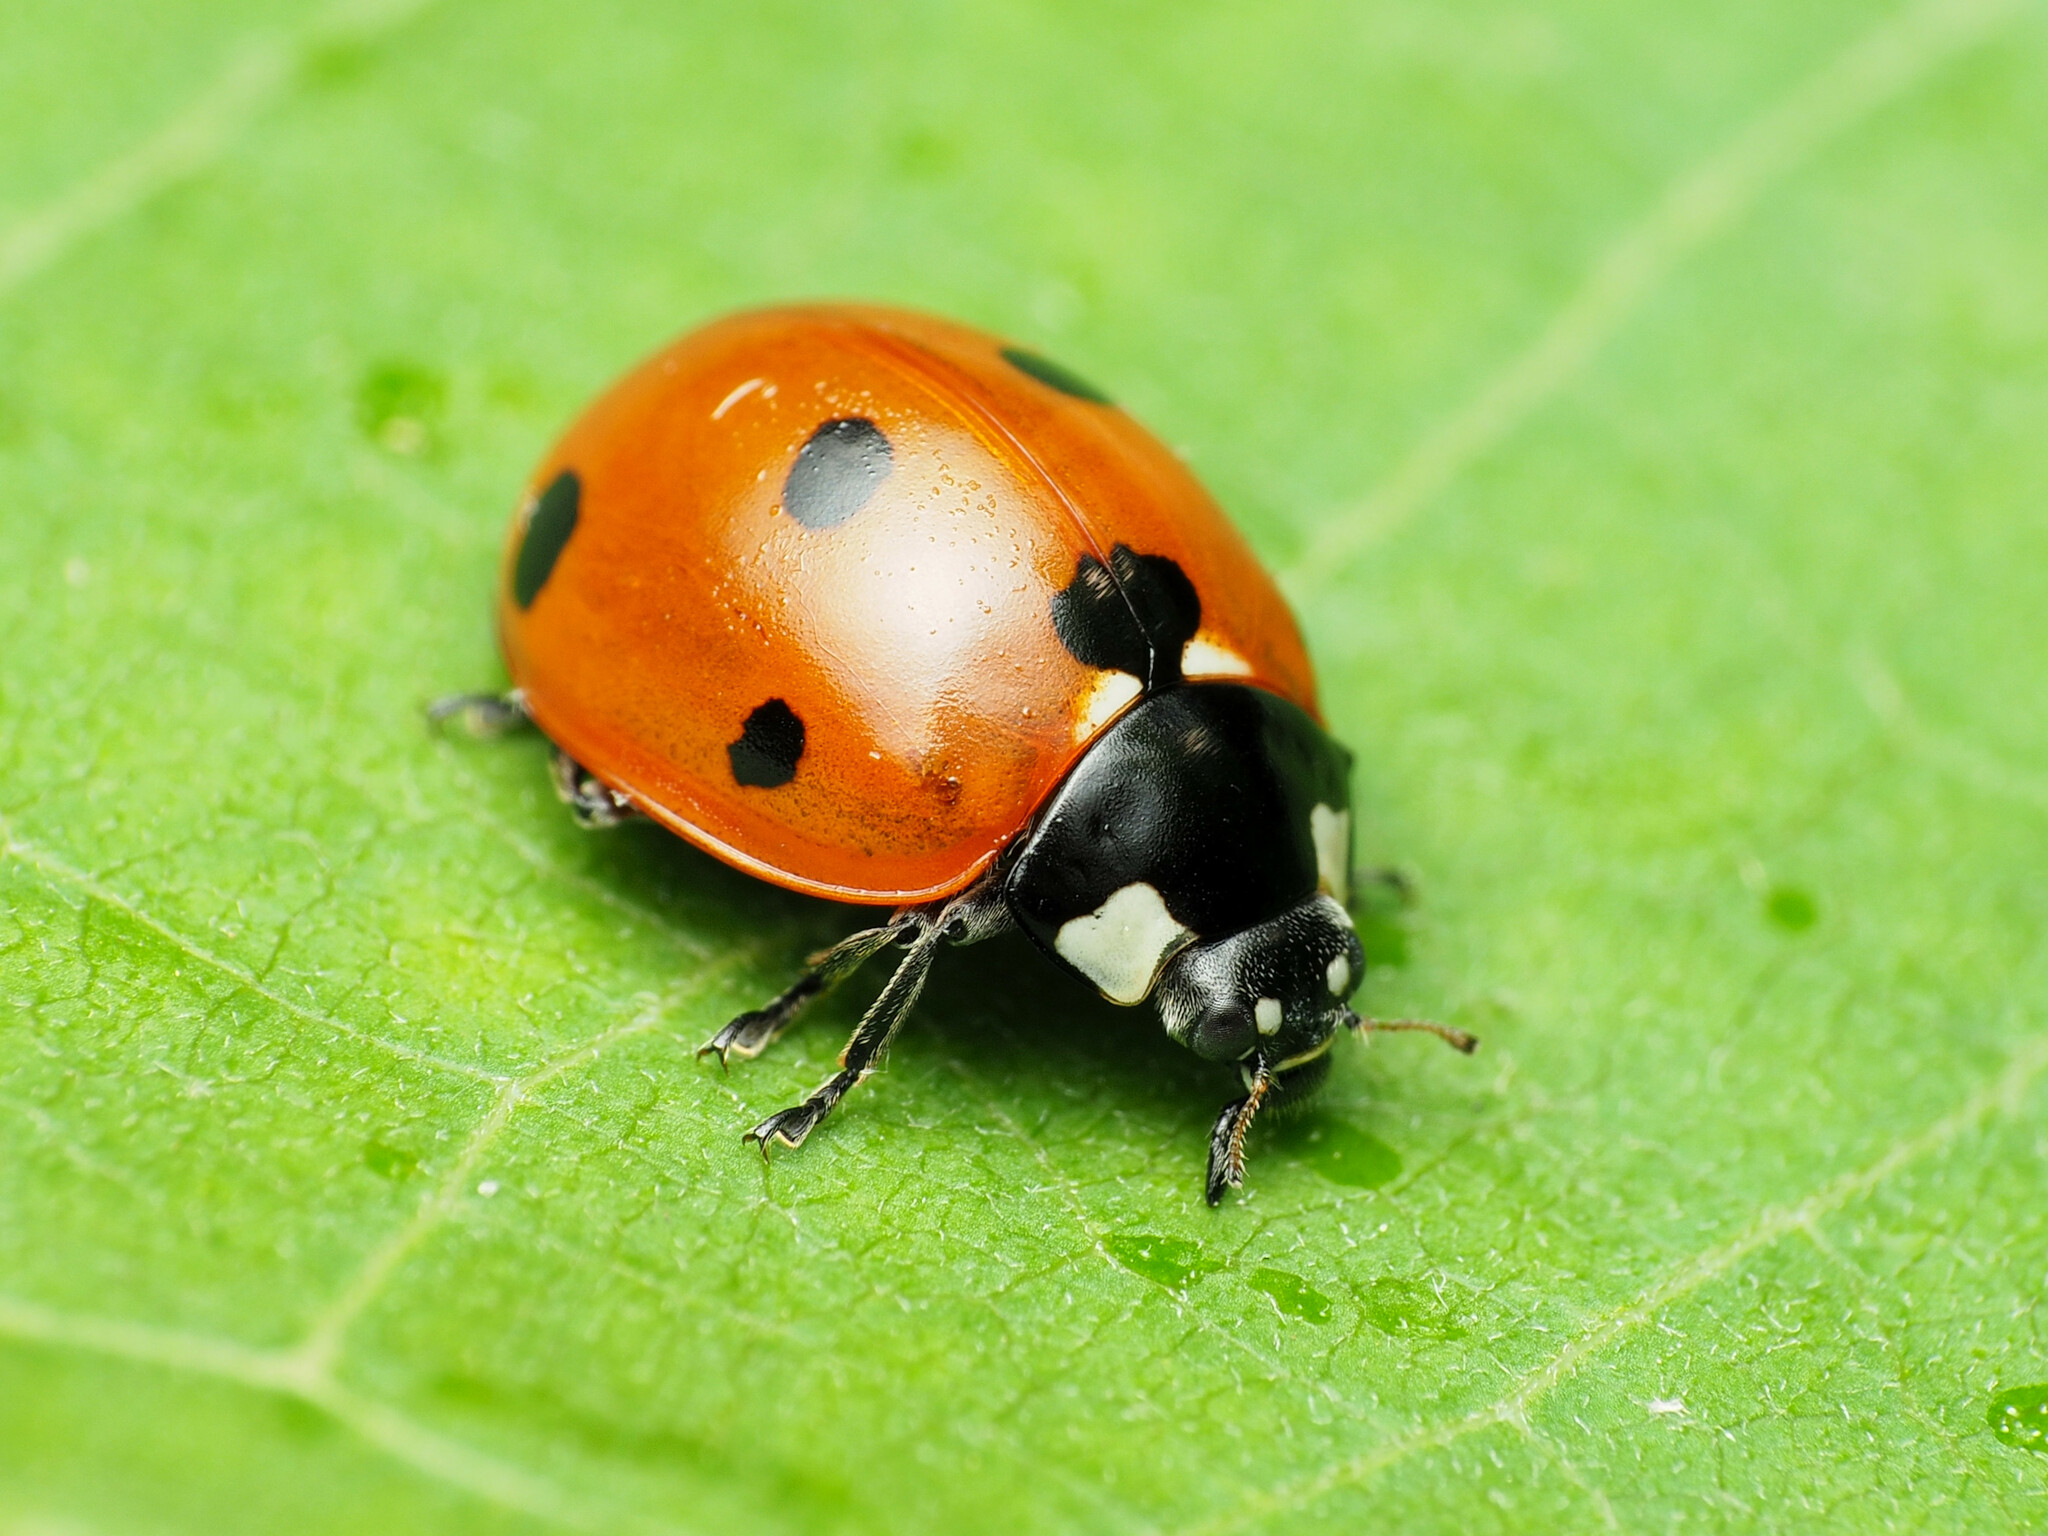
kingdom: Animalia
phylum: Arthropoda
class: Insecta
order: Coleoptera
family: Coccinellidae
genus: Coccinella
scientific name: Coccinella septempunctata
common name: Sevenspotted lady beetle
